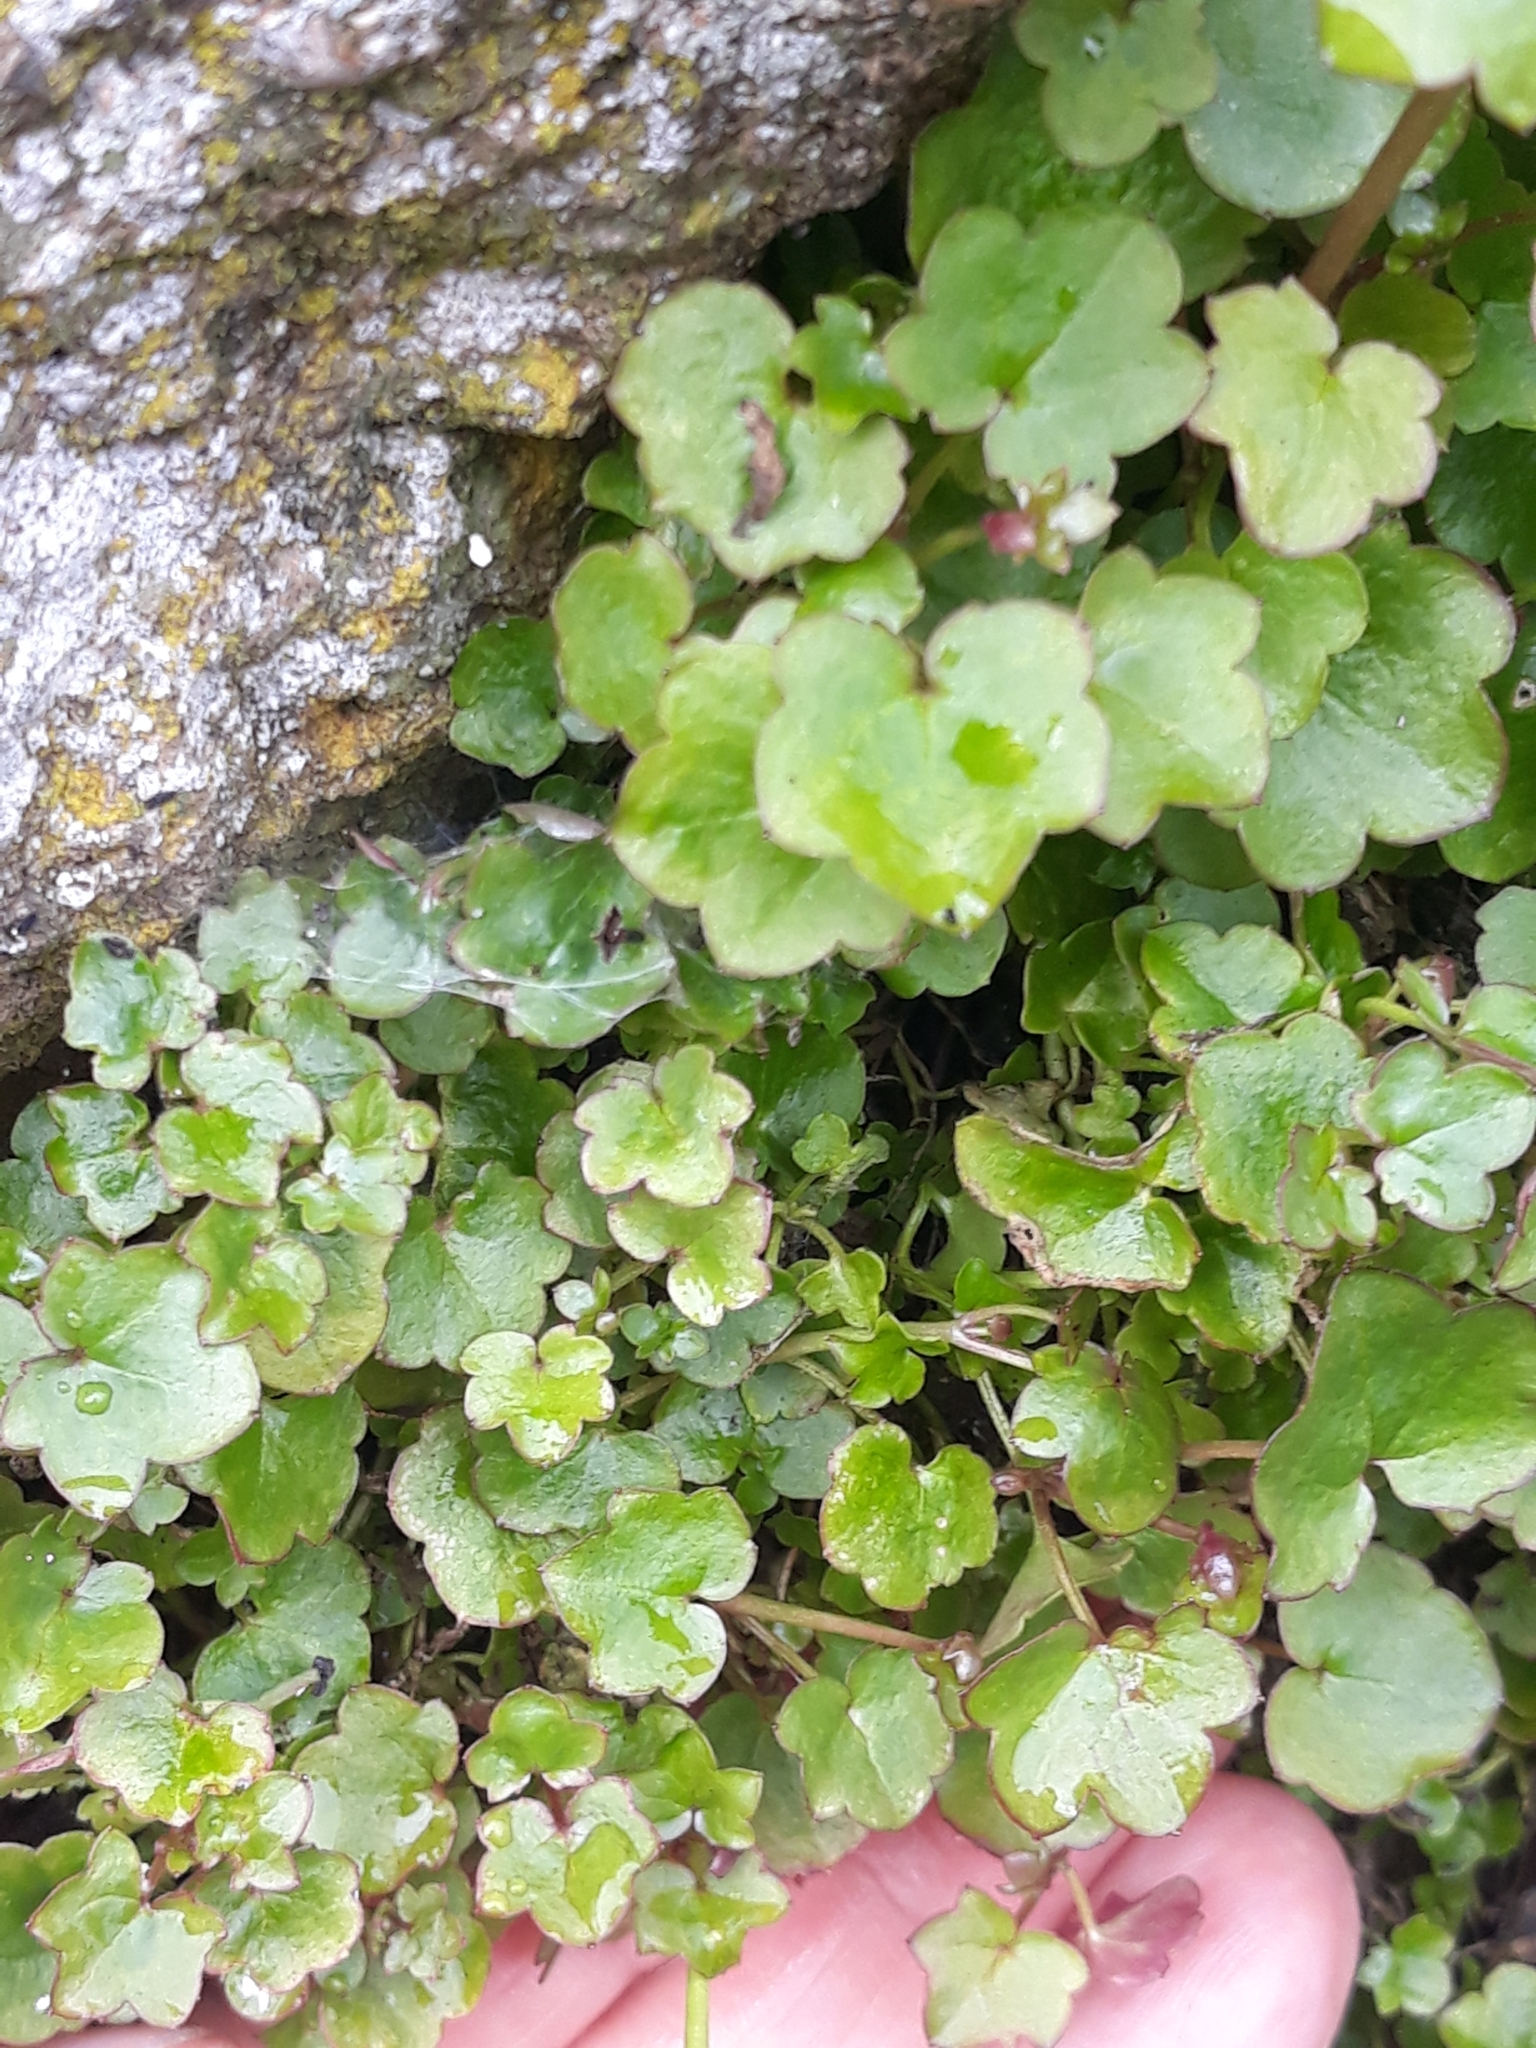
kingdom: Plantae
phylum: Tracheophyta
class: Magnoliopsida
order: Lamiales
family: Plantaginaceae
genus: Cymbalaria
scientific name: Cymbalaria muralis
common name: Ivy-leaved toadflax
